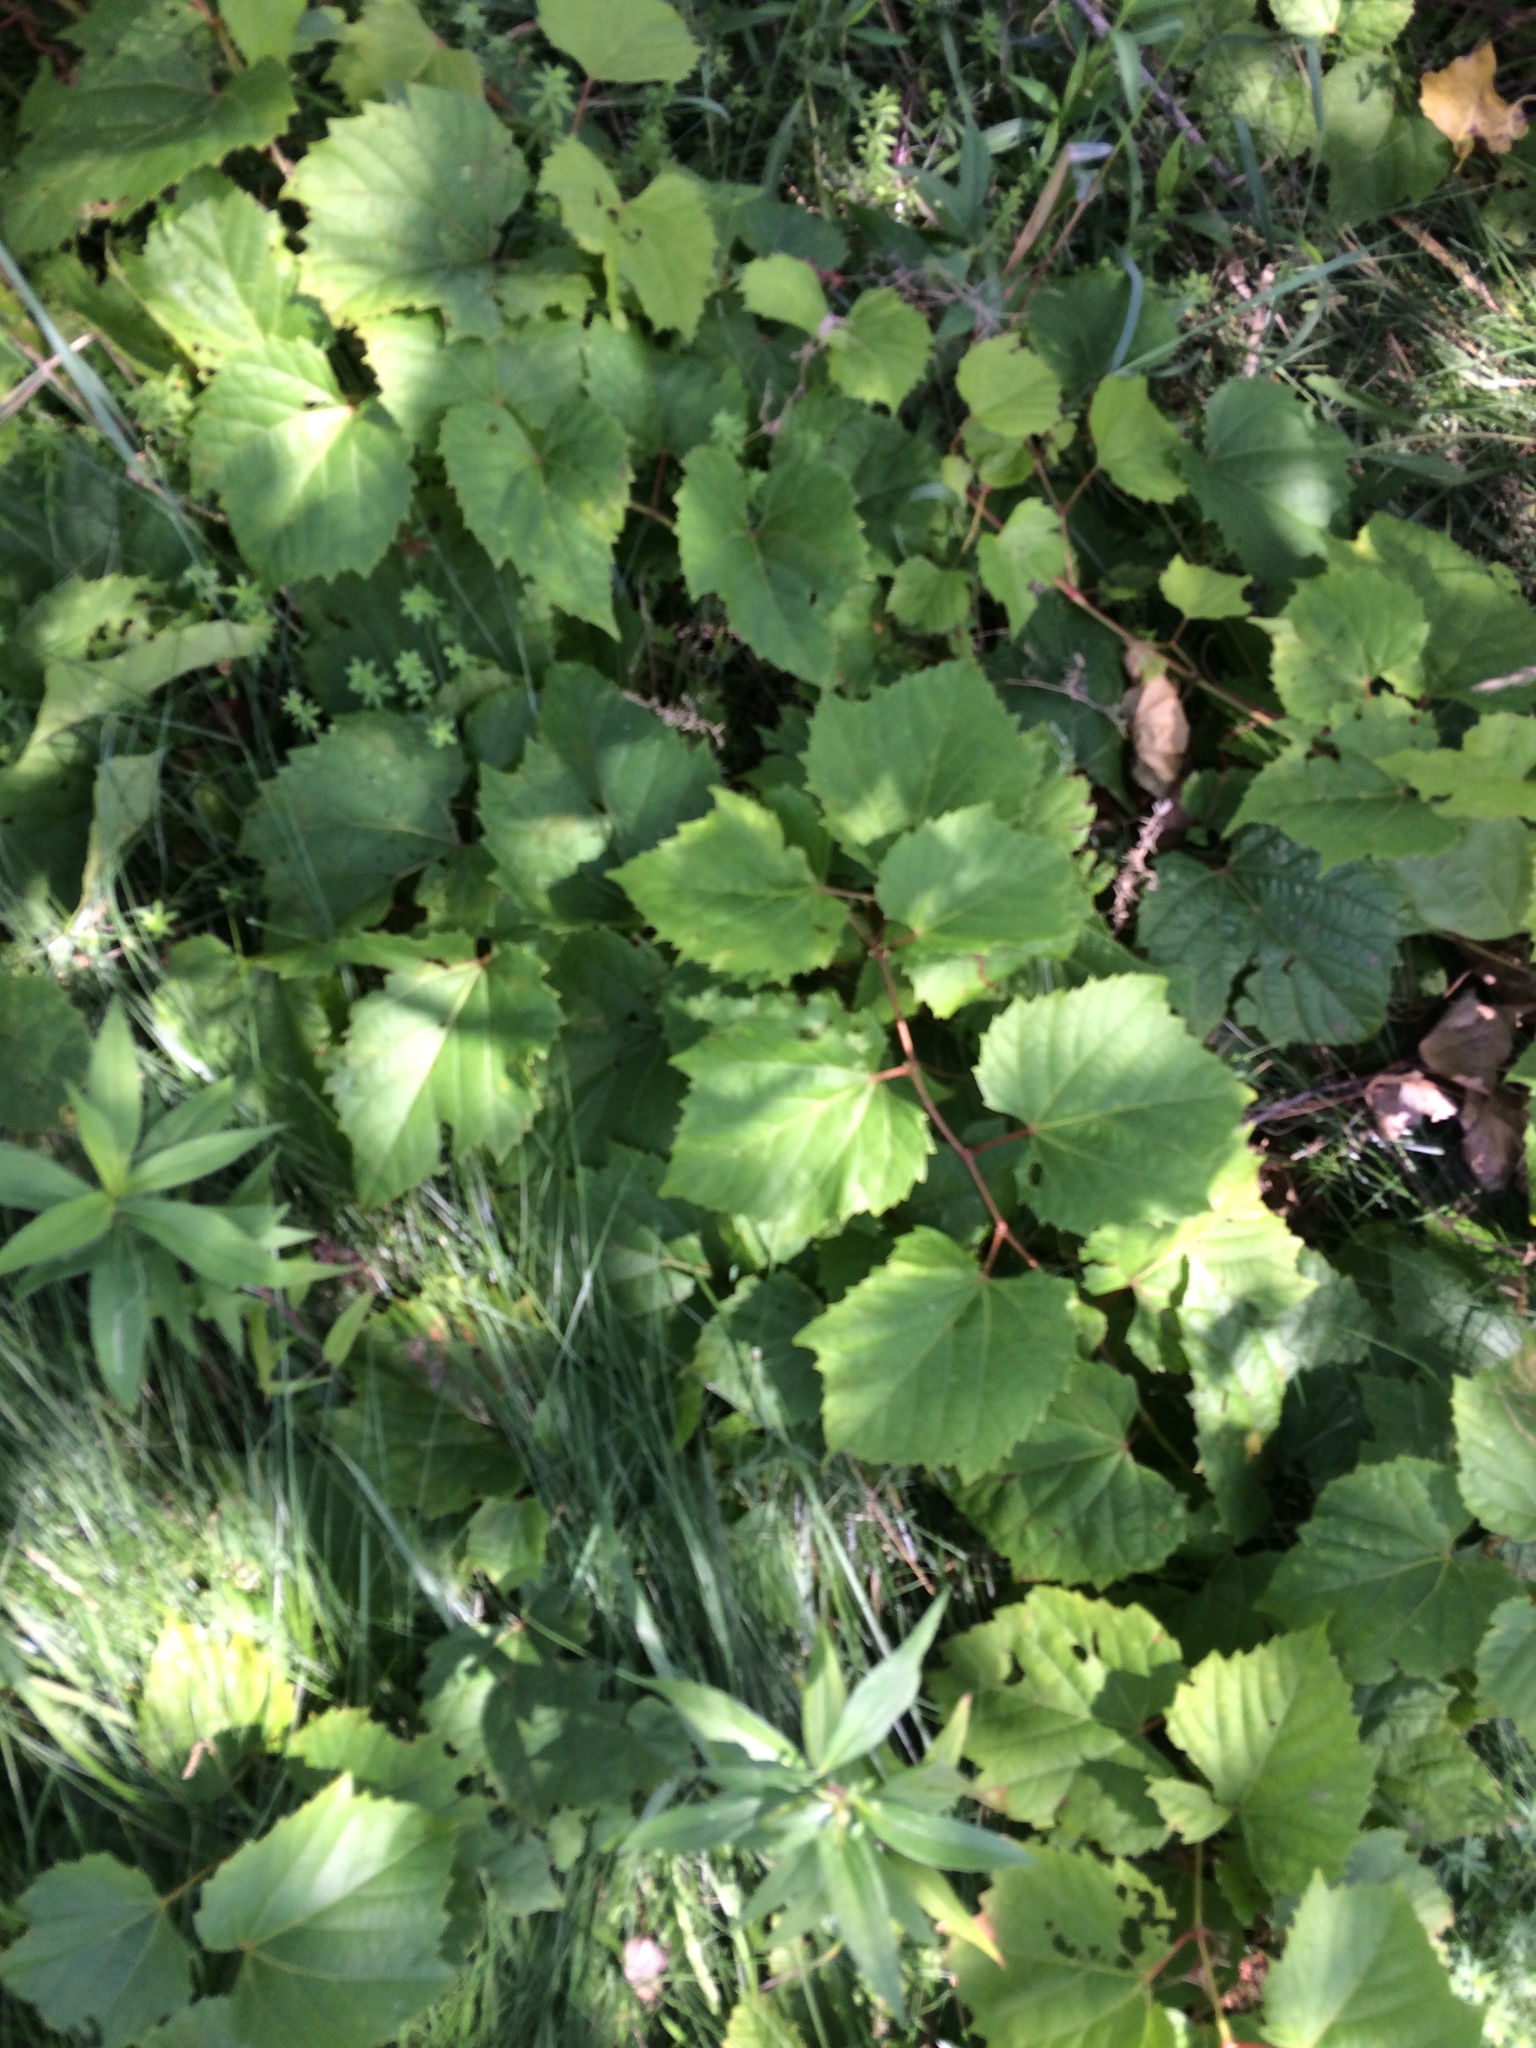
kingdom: Plantae
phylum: Tracheophyta
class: Magnoliopsida
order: Vitales
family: Vitaceae
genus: Vitis
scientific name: Vitis riparia
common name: Frost grape
